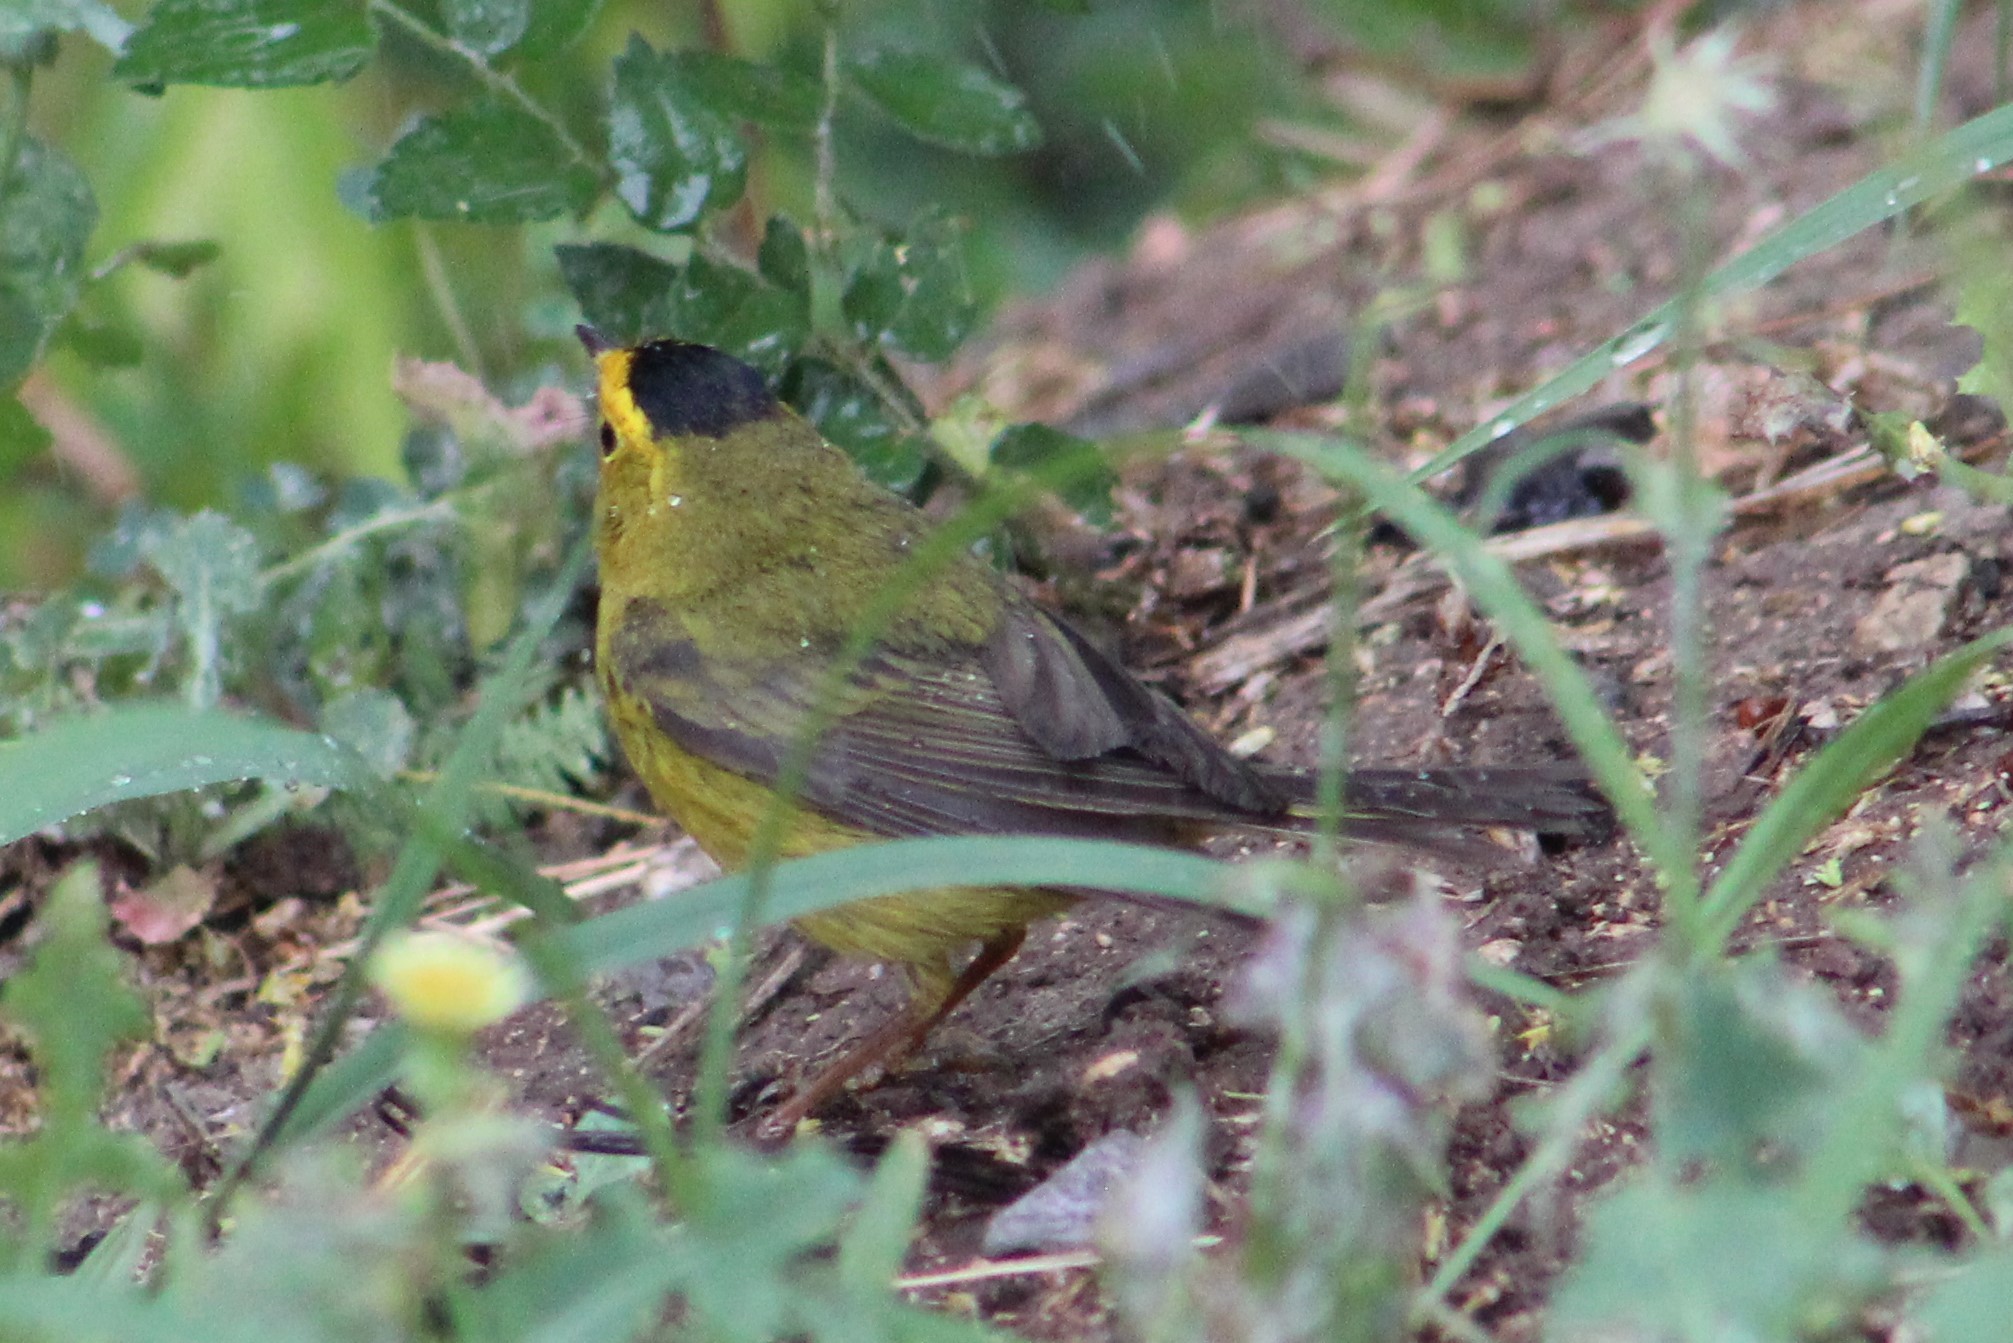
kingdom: Animalia
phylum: Chordata
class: Aves
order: Passeriformes
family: Parulidae
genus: Cardellina
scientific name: Cardellina pusilla
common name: Wilson's warbler
